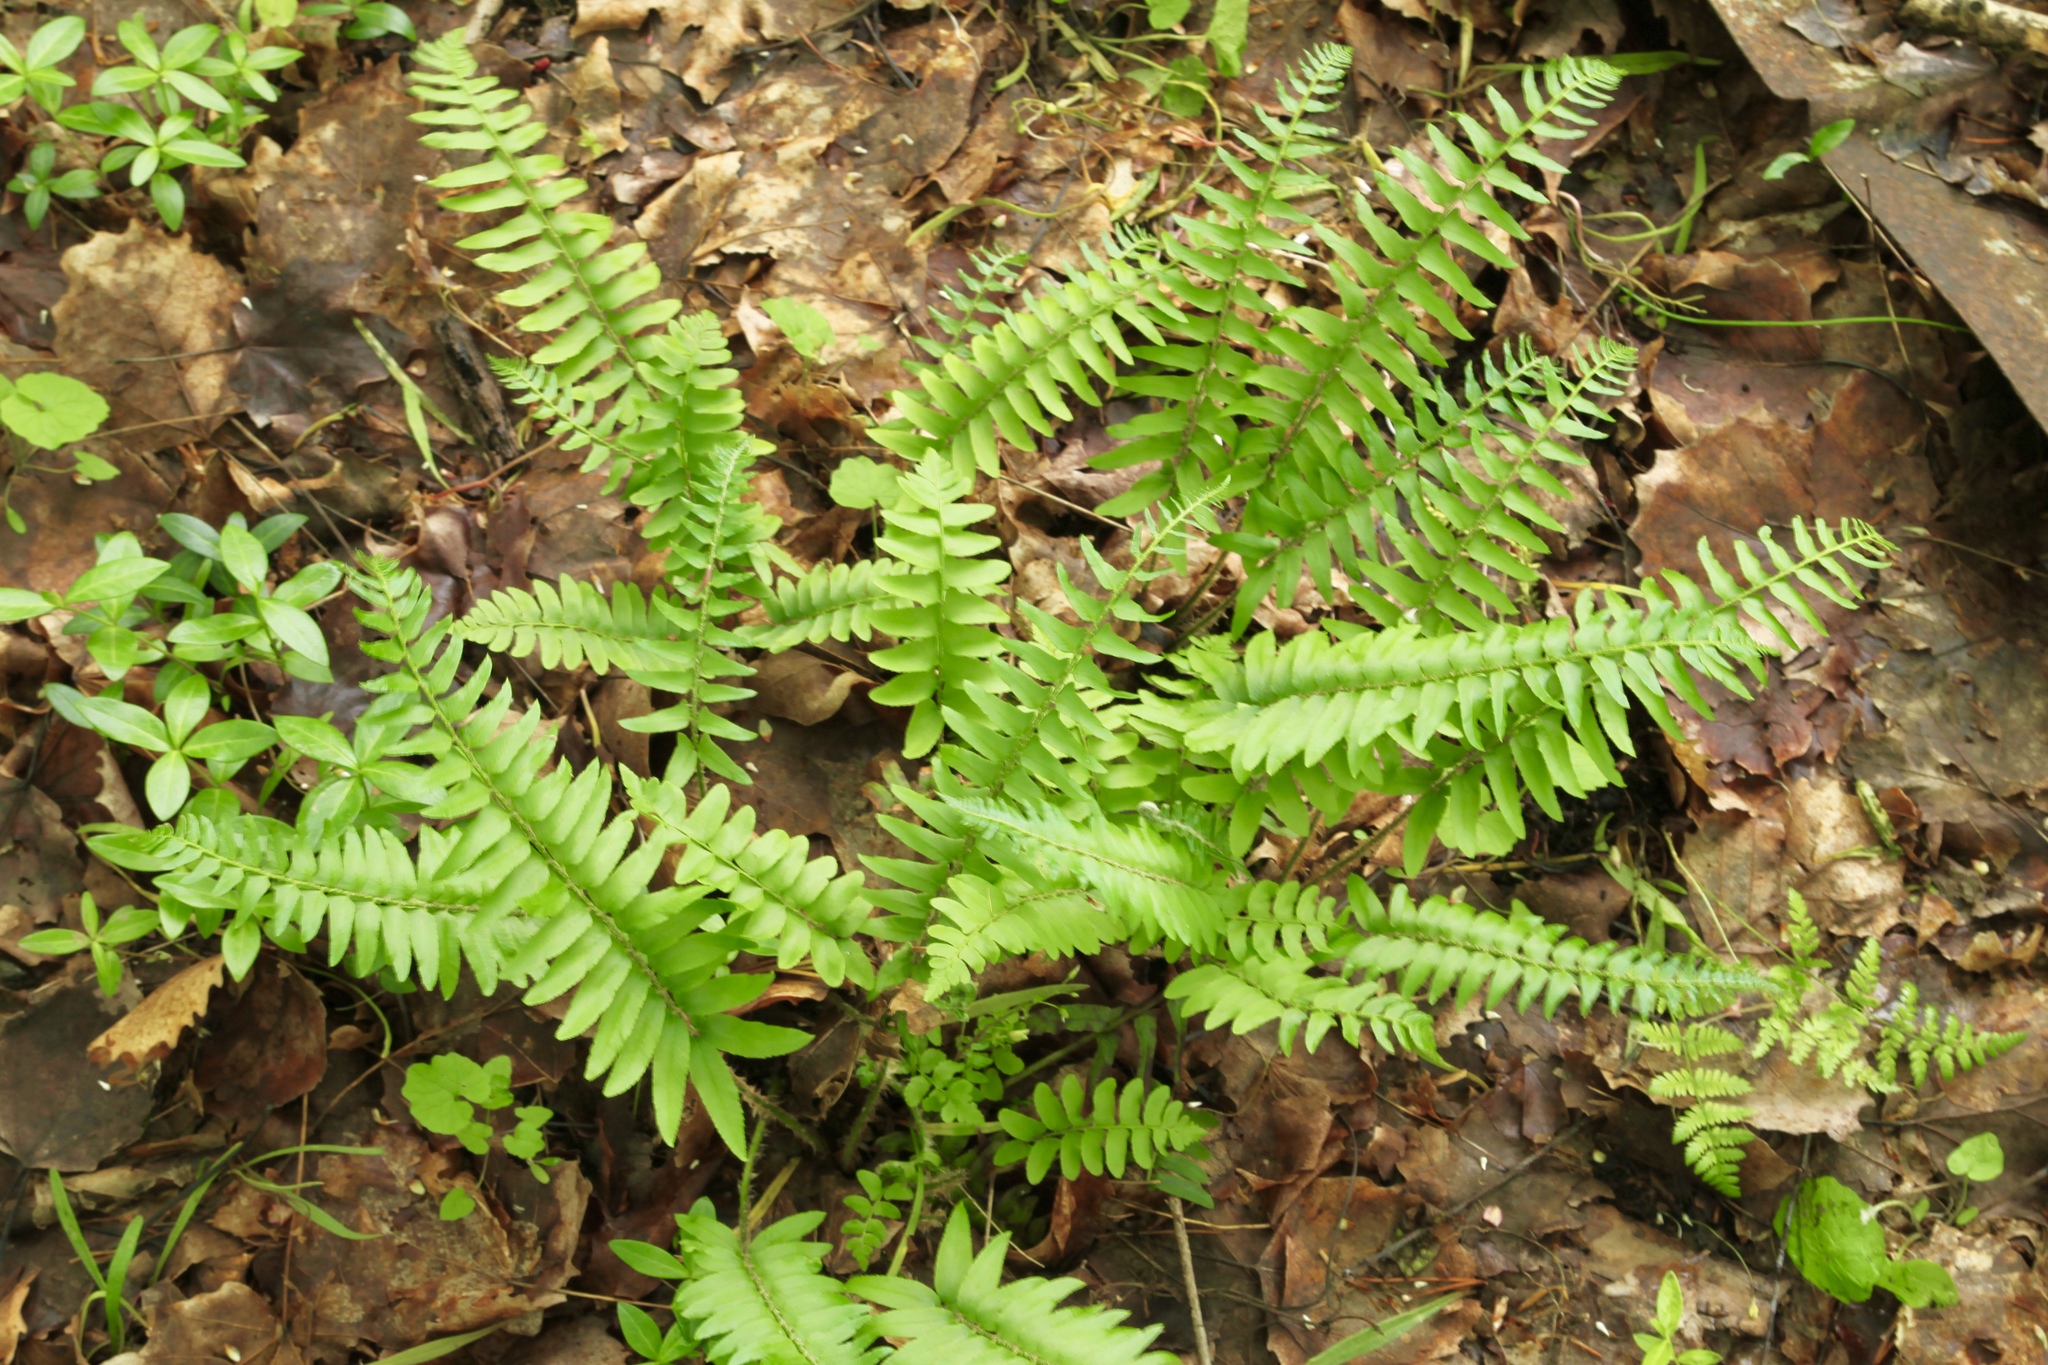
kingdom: Plantae
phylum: Tracheophyta
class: Polypodiopsida
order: Polypodiales
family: Dryopteridaceae
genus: Polystichum
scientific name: Polystichum acrostichoides
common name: Christmas fern
